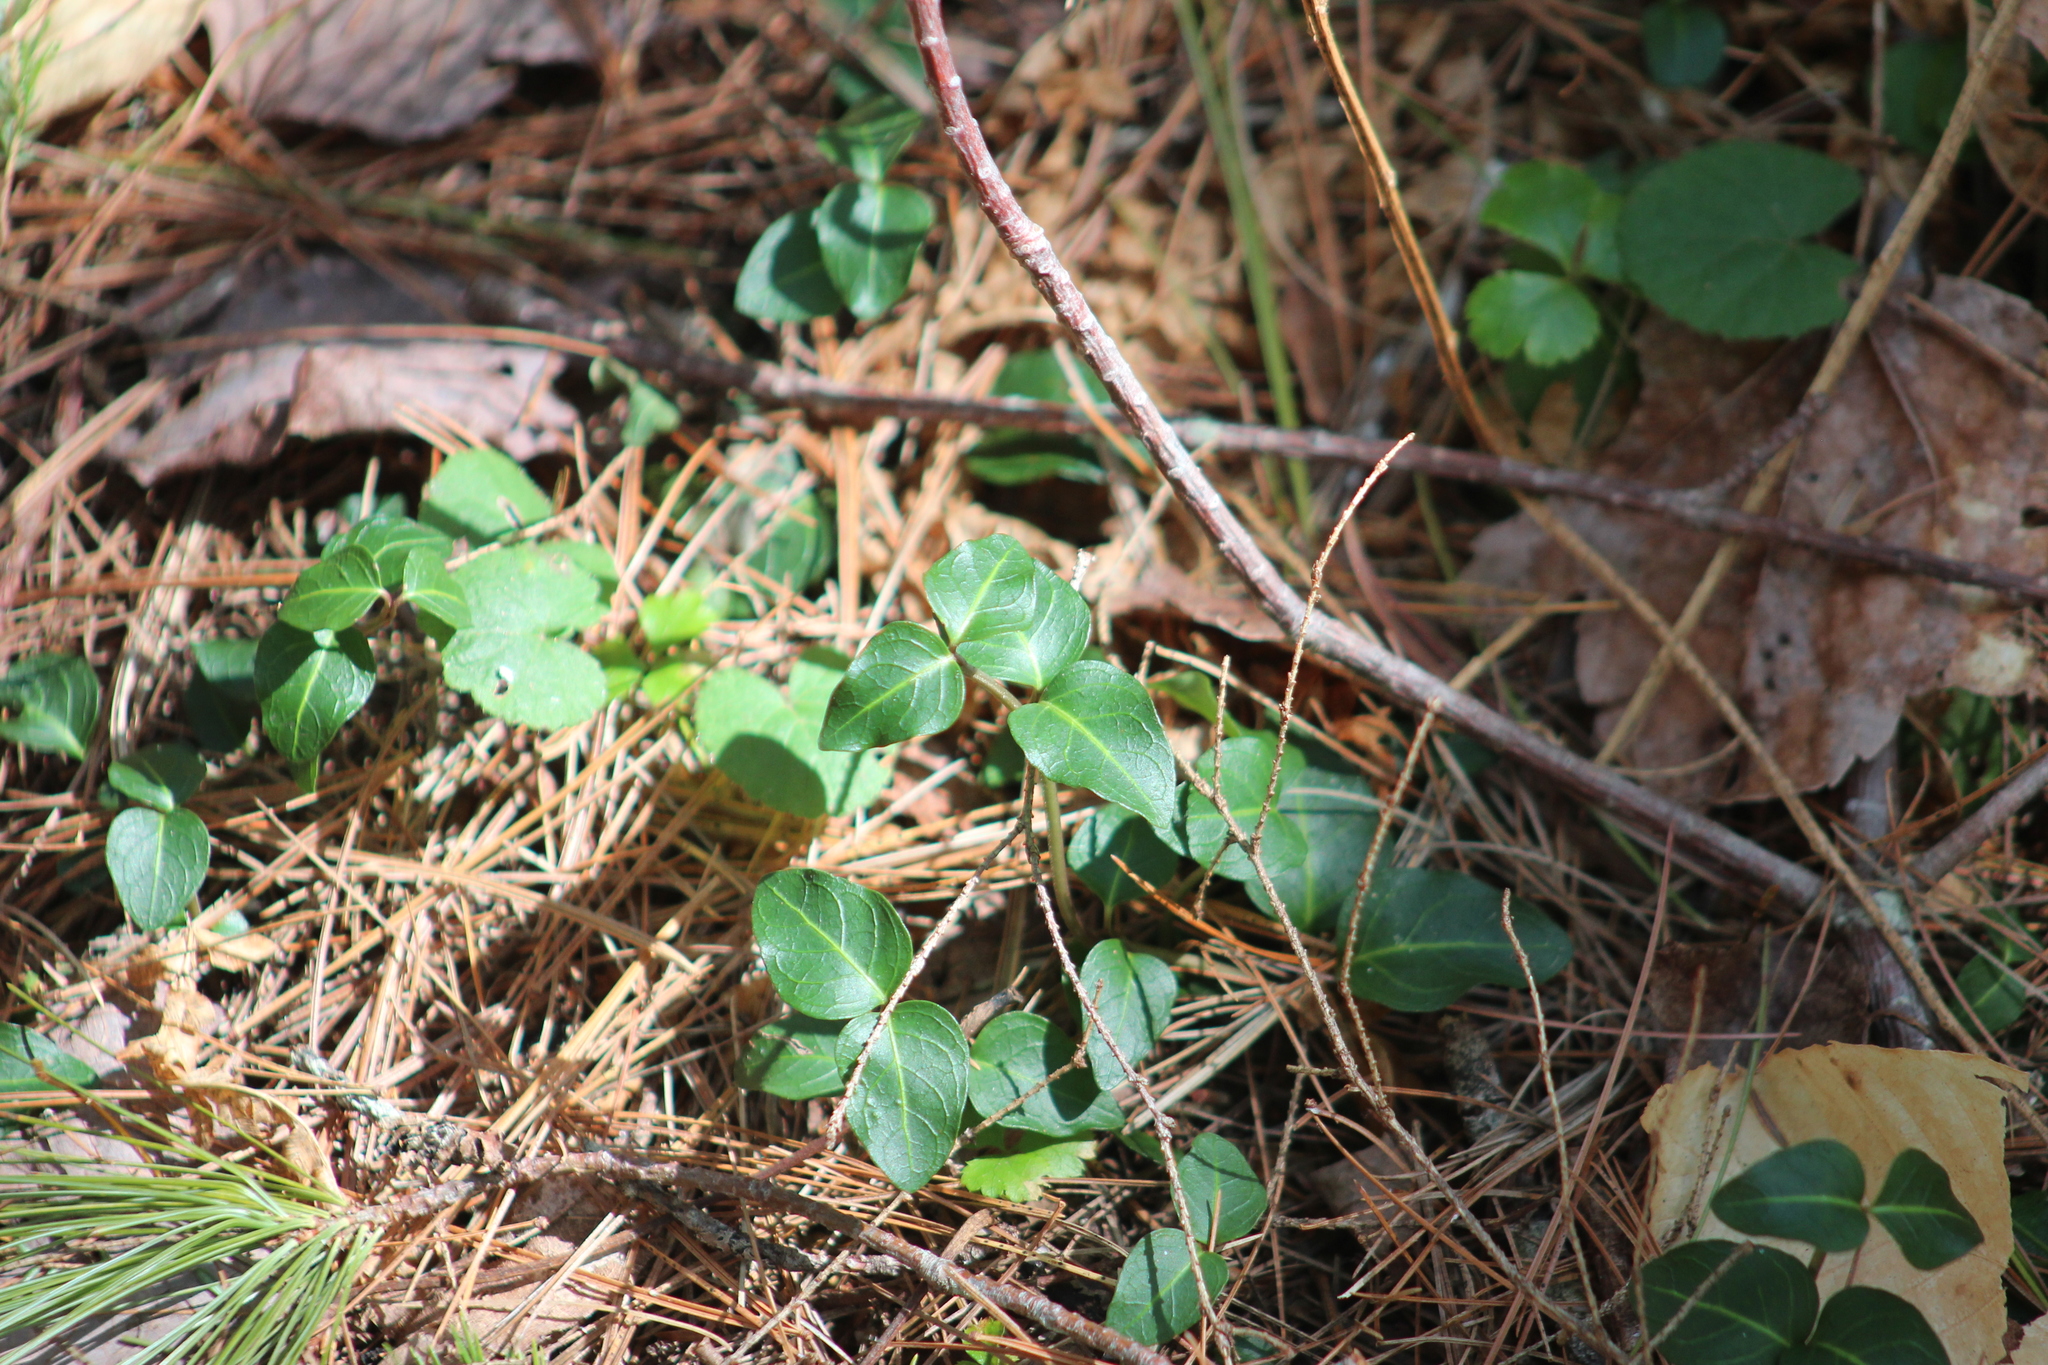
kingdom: Plantae
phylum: Tracheophyta
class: Magnoliopsida
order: Gentianales
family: Rubiaceae
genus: Mitchella
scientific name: Mitchella repens
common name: Partridge-berry
